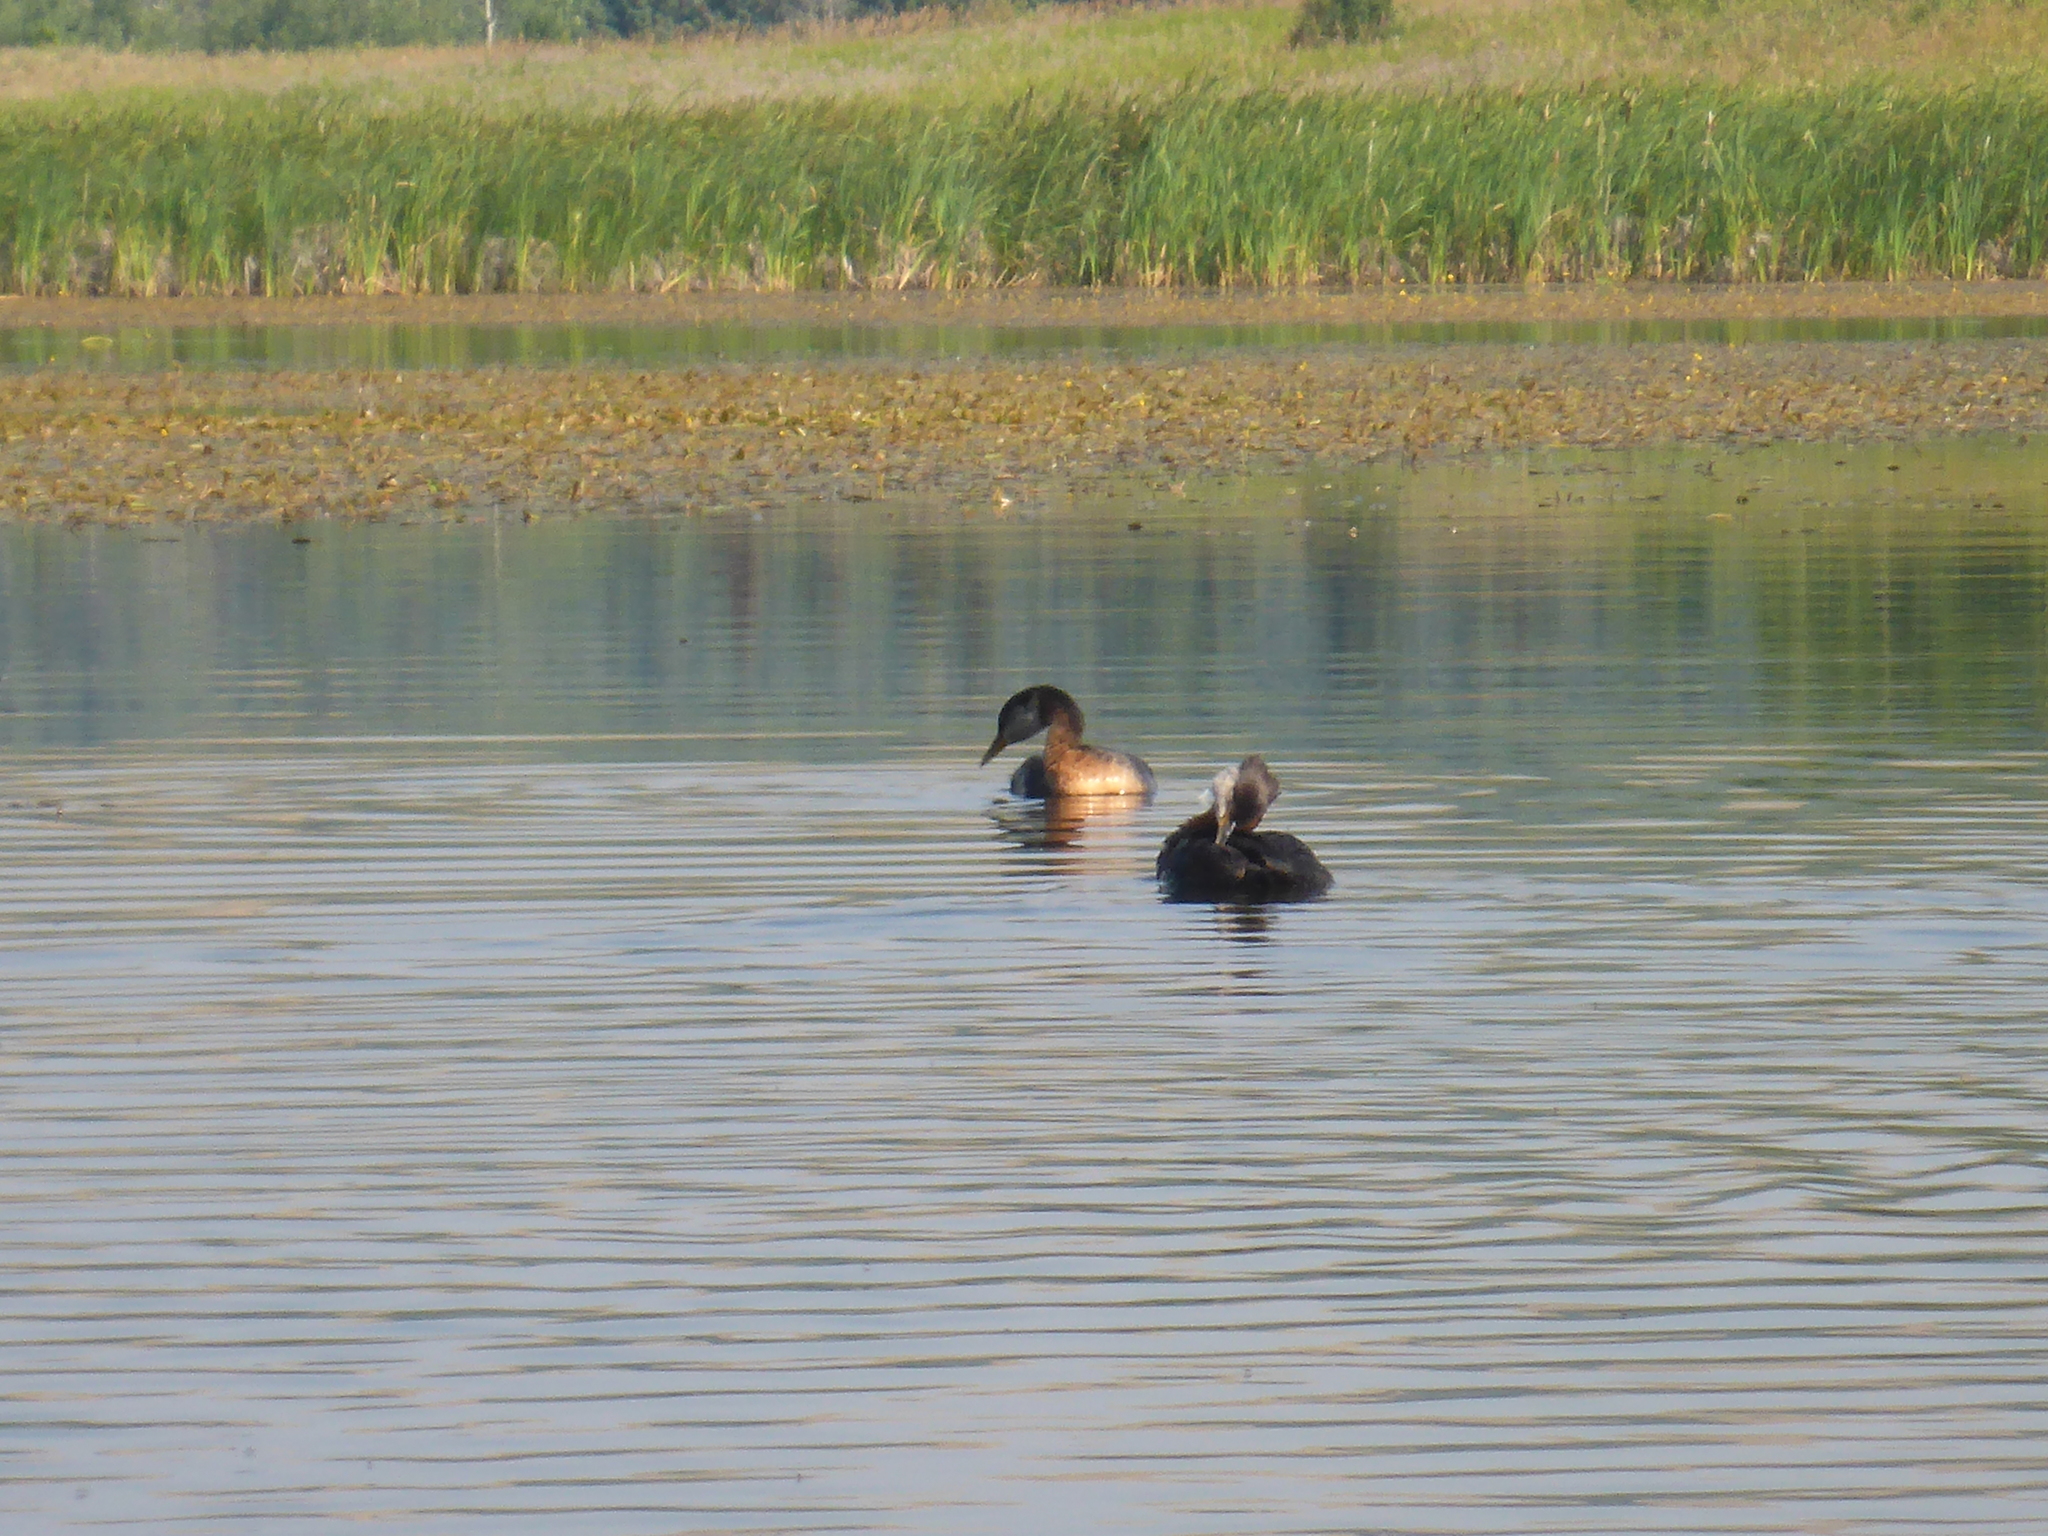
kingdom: Animalia
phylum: Chordata
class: Aves
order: Podicipediformes
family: Podicipedidae
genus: Podiceps
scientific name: Podiceps grisegena
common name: Red-necked grebe
